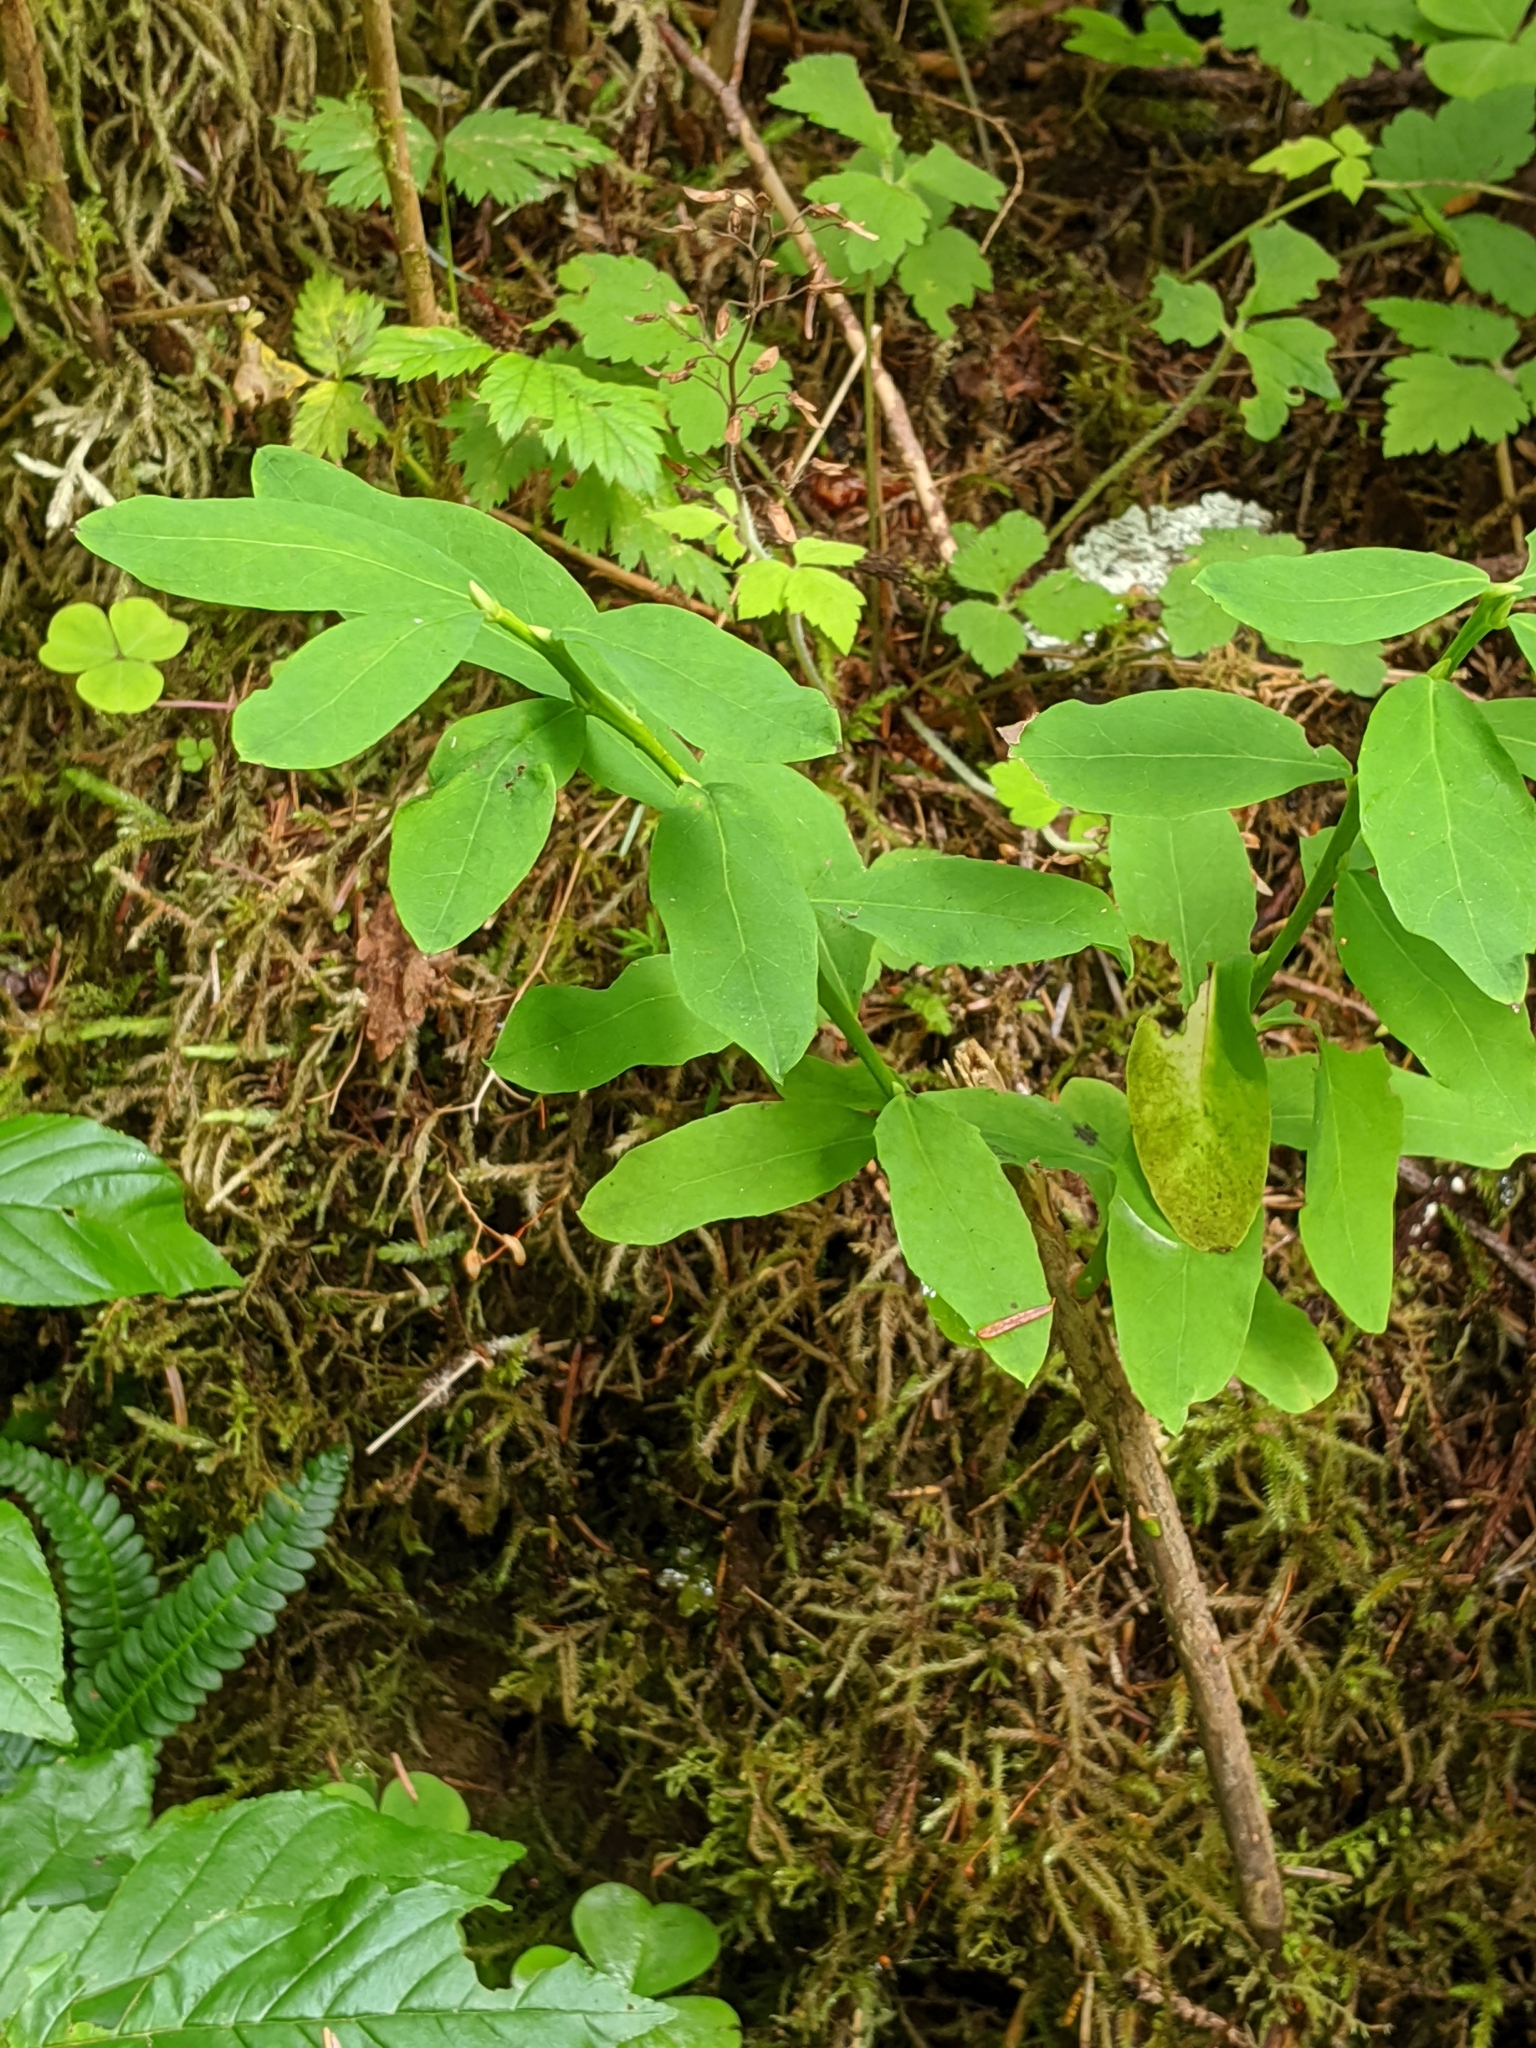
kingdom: Plantae
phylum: Tracheophyta
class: Magnoliopsida
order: Rosales
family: Rosaceae
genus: Oemleria
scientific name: Oemleria cerasiformis
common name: Osoberry
